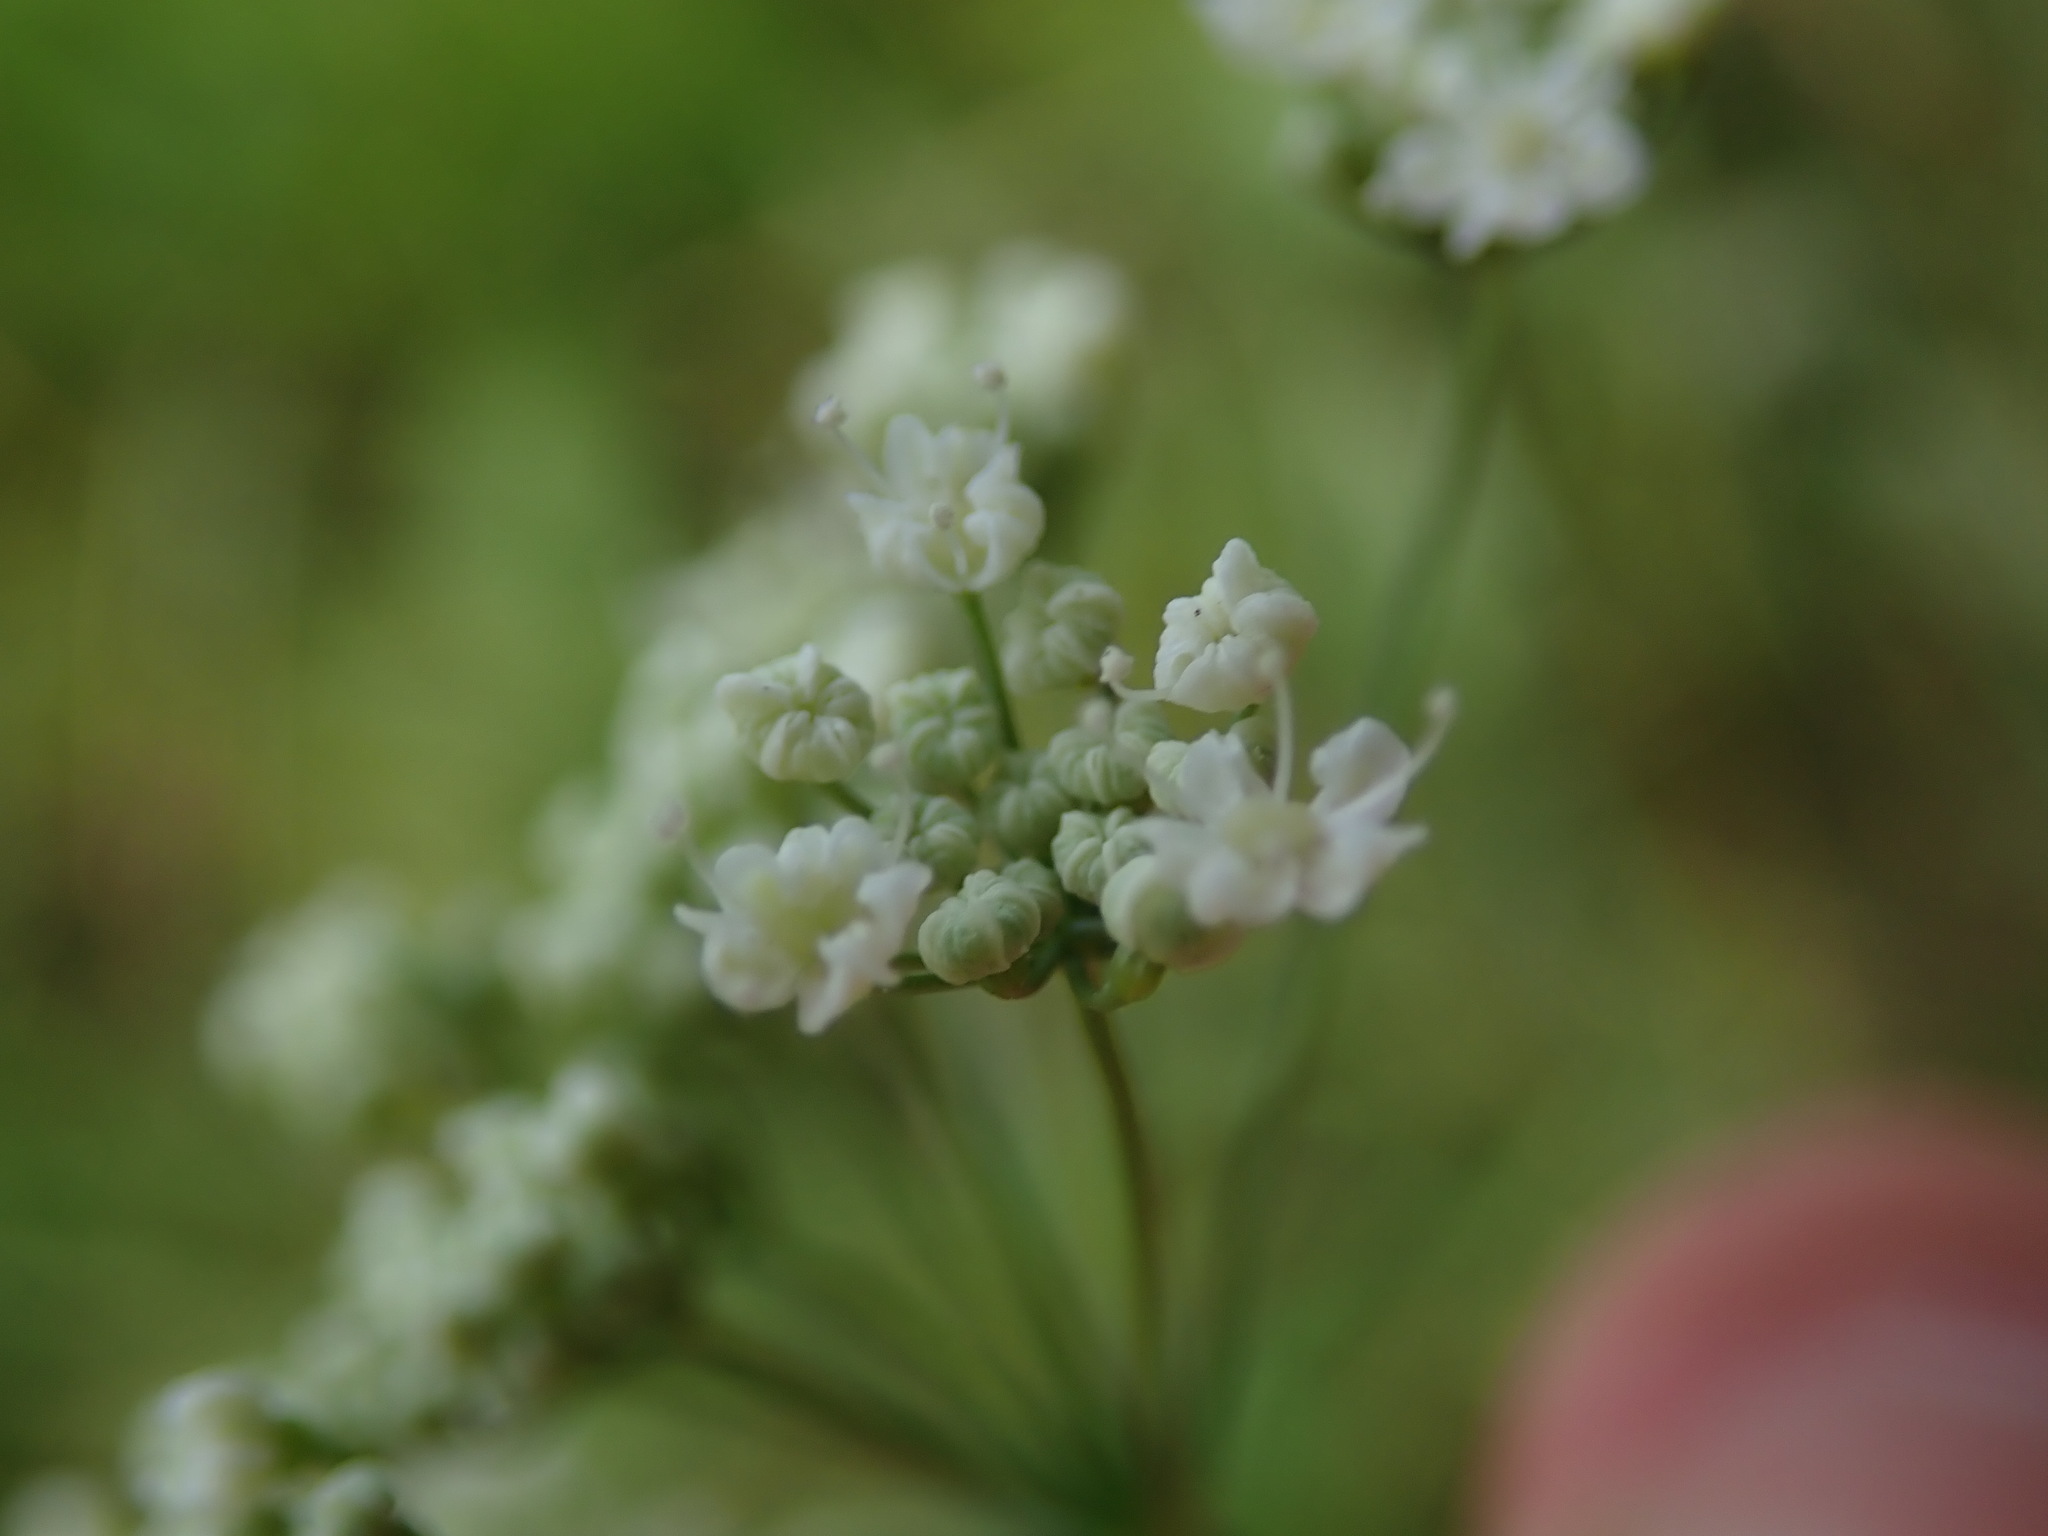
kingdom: Plantae
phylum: Tracheophyta
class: Magnoliopsida
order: Apiales
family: Apiaceae
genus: Pimpinella
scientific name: Pimpinella saxifraga
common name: Burnet-saxifrage
